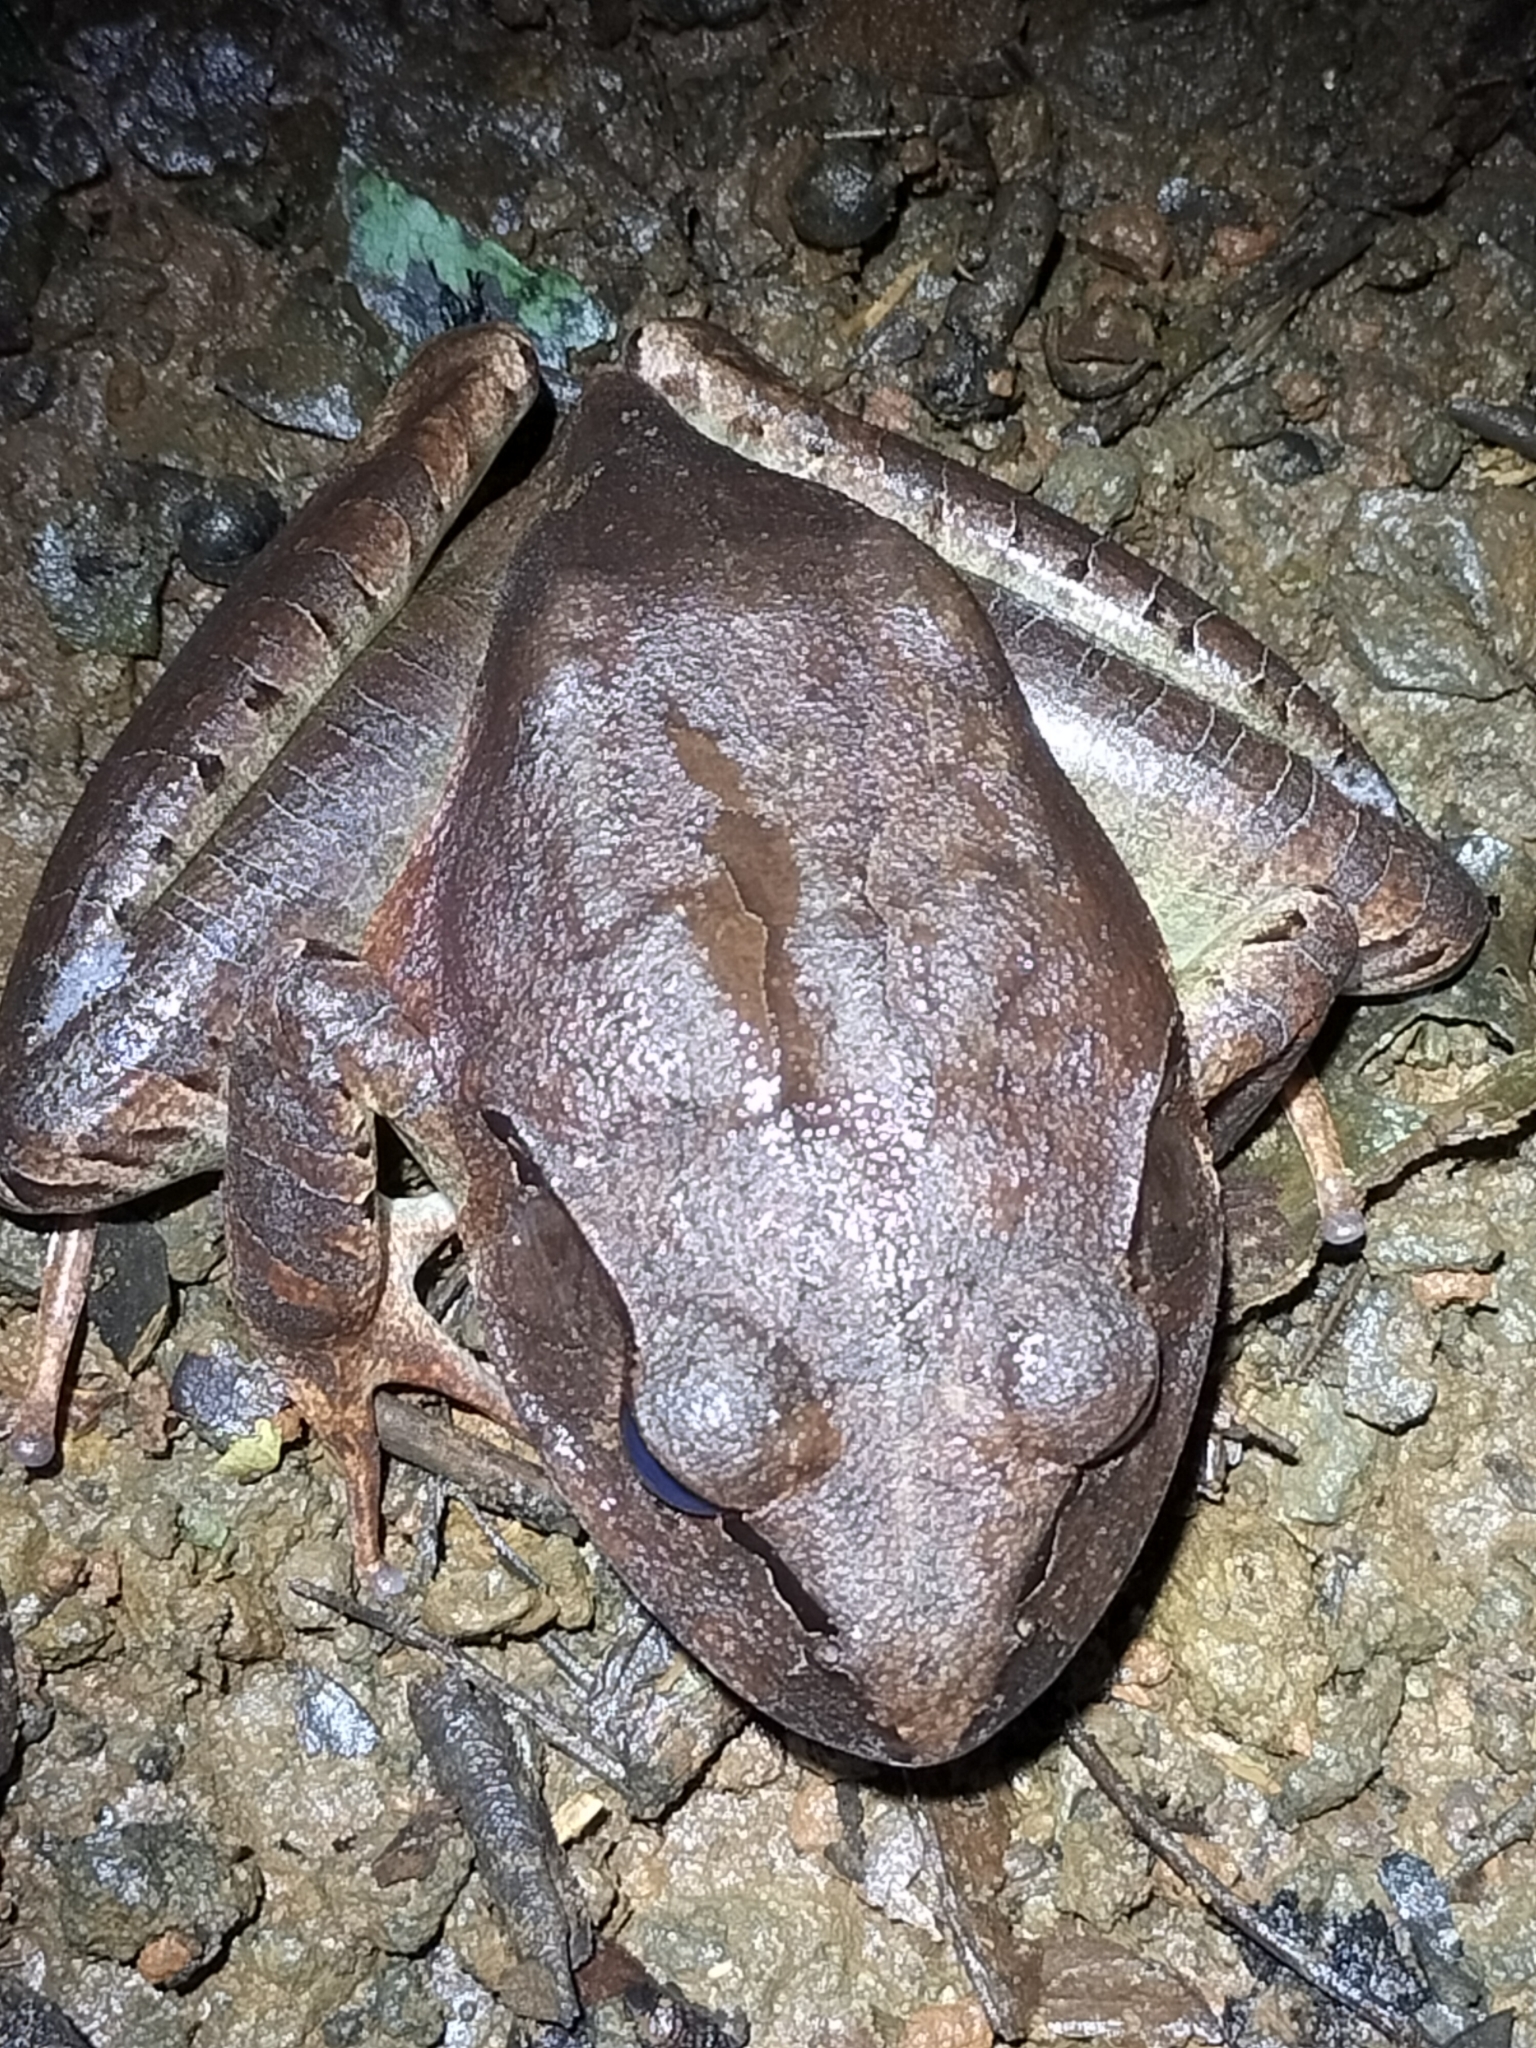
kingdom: Animalia
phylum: Chordata
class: Amphibia
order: Anura
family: Myobatrachidae
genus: Mixophyes
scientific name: Mixophyes schevilli
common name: Northern barred frog
